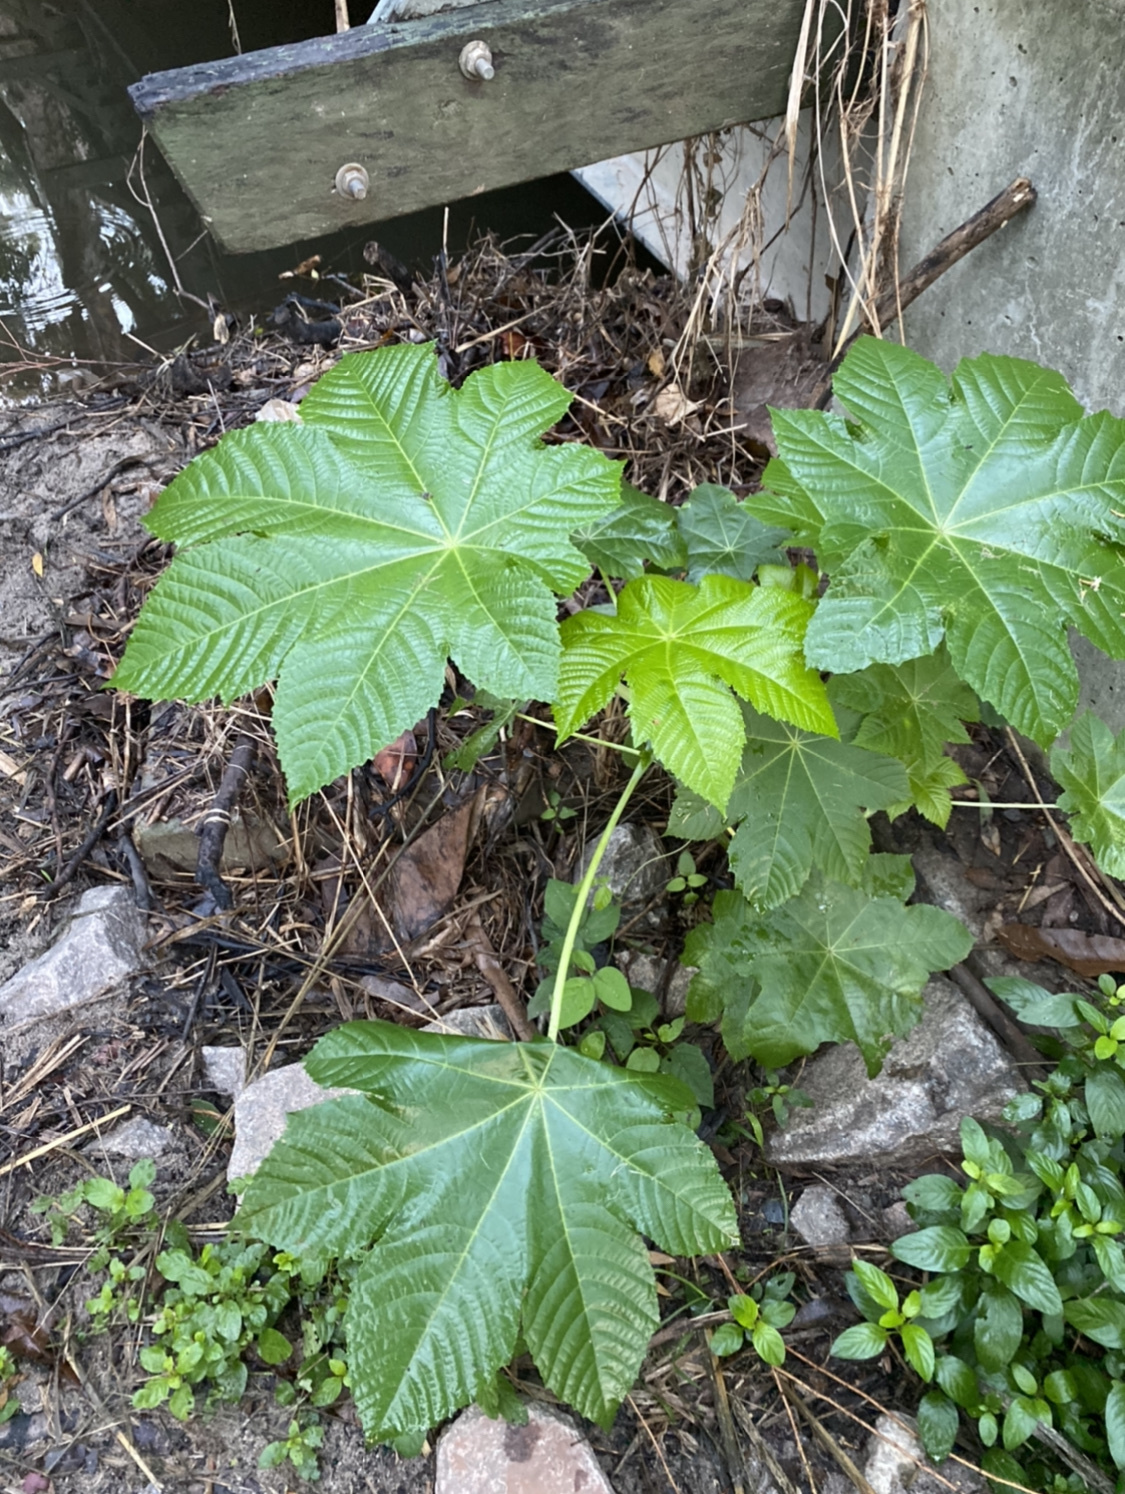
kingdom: Plantae
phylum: Tracheophyta
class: Magnoliopsida
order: Malpighiales
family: Euphorbiaceae
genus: Ricinus
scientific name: Ricinus communis
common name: Castor-oil-plant
